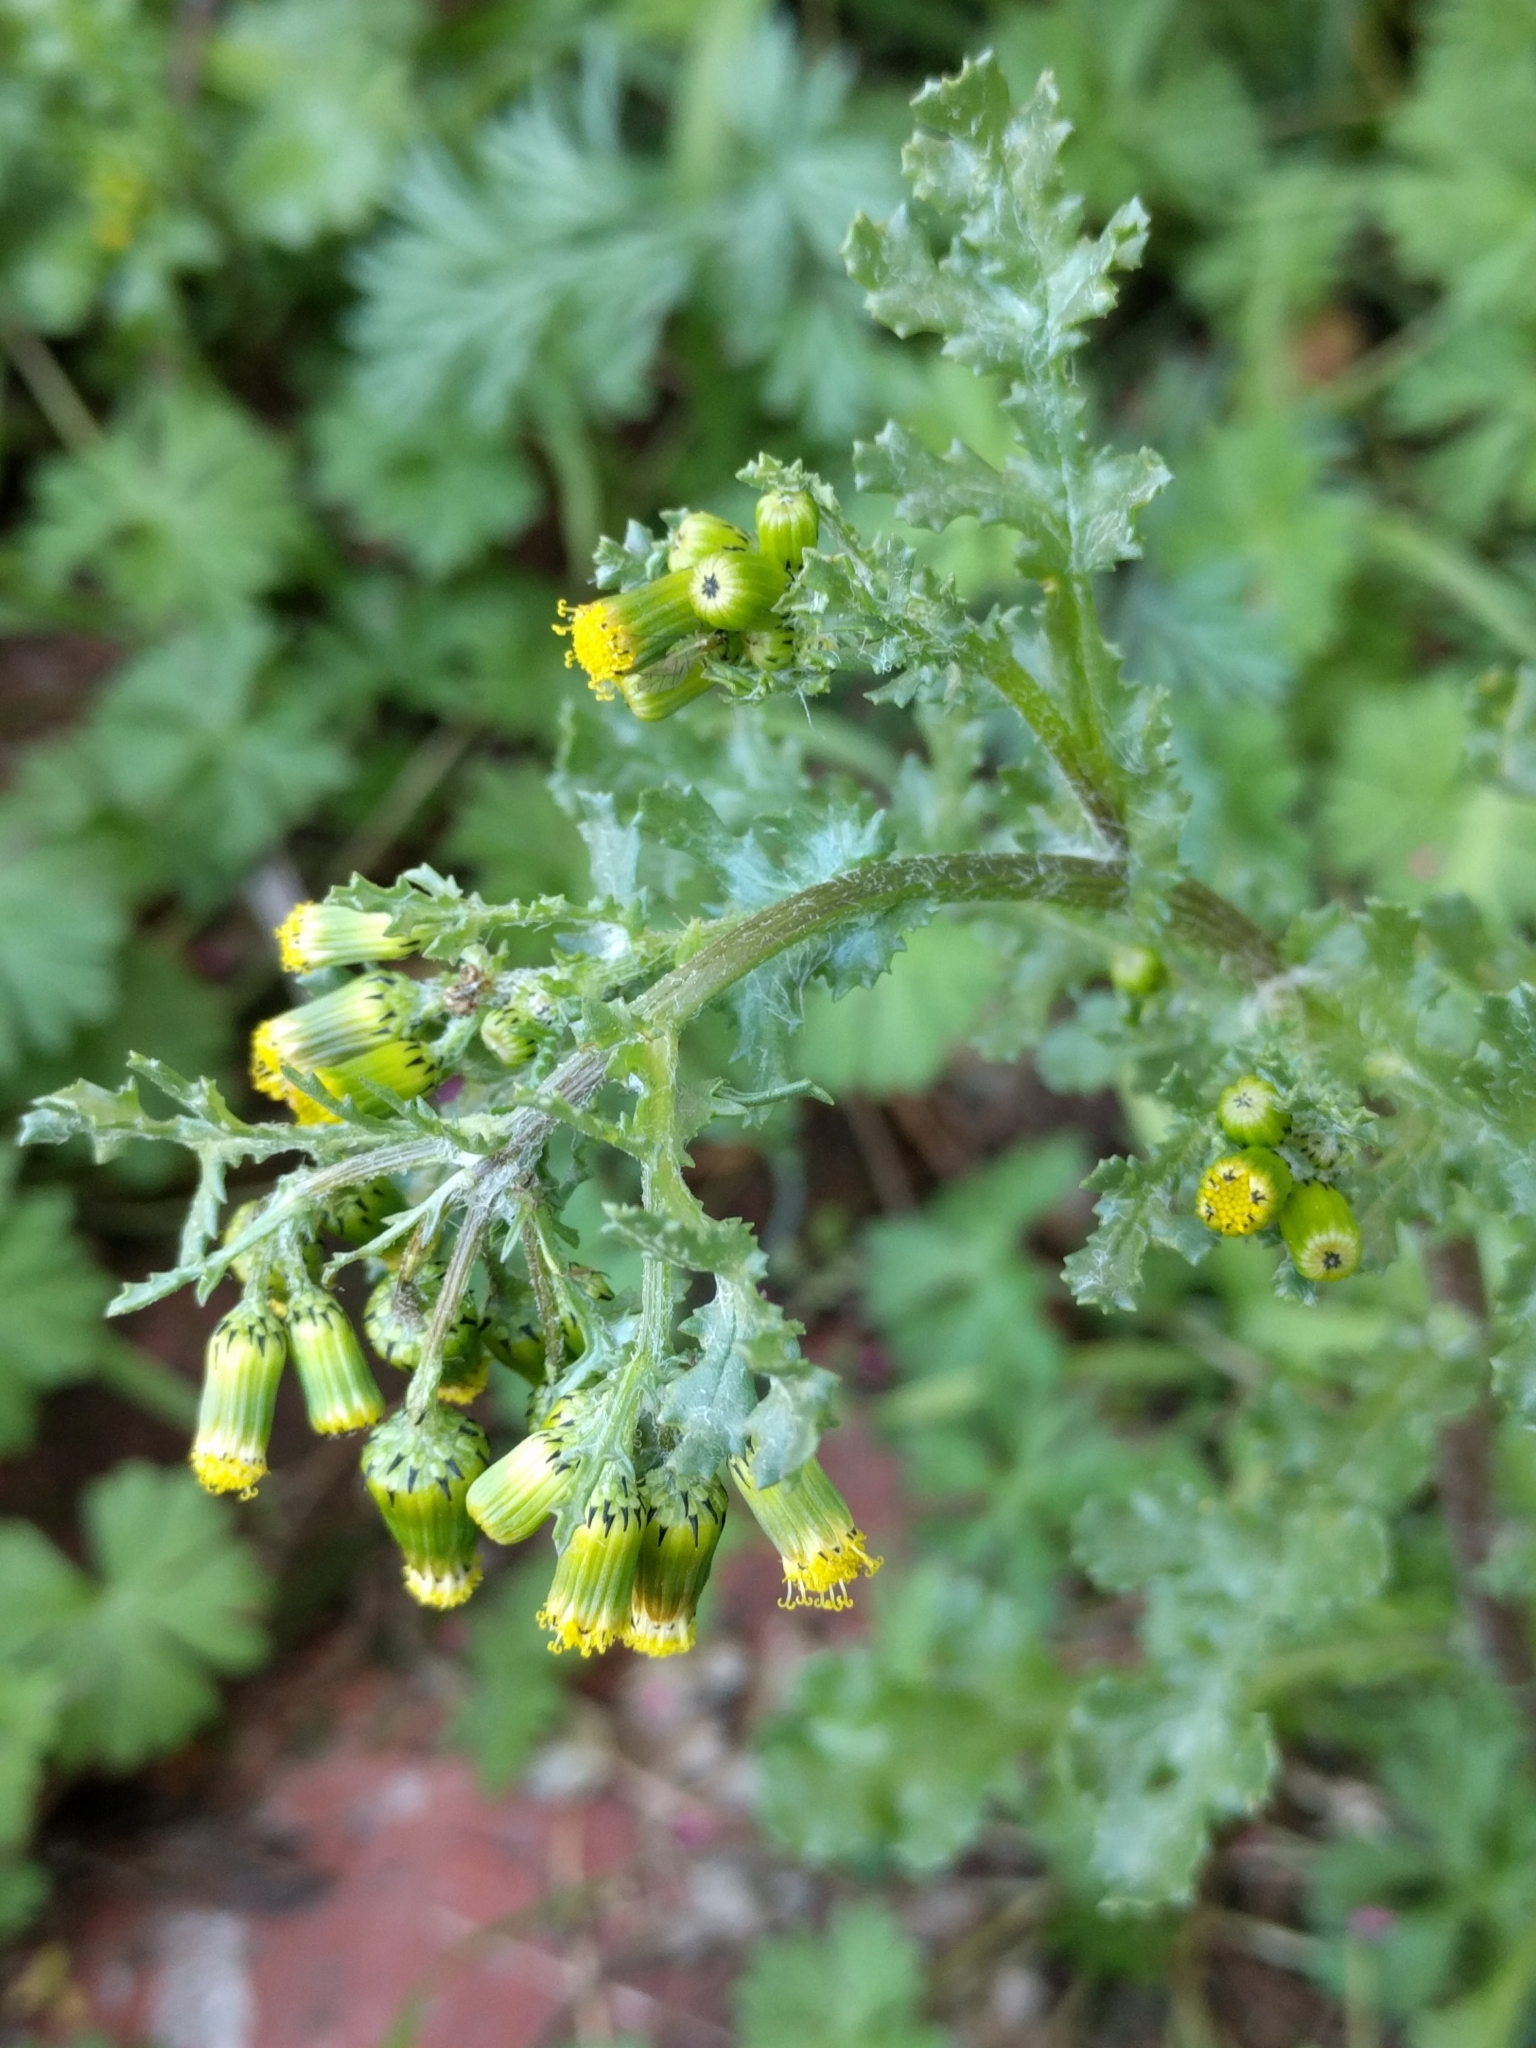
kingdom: Plantae
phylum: Tracheophyta
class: Magnoliopsida
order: Asterales
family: Asteraceae
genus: Senecio
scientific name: Senecio vulgaris
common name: Old-man-in-the-spring
